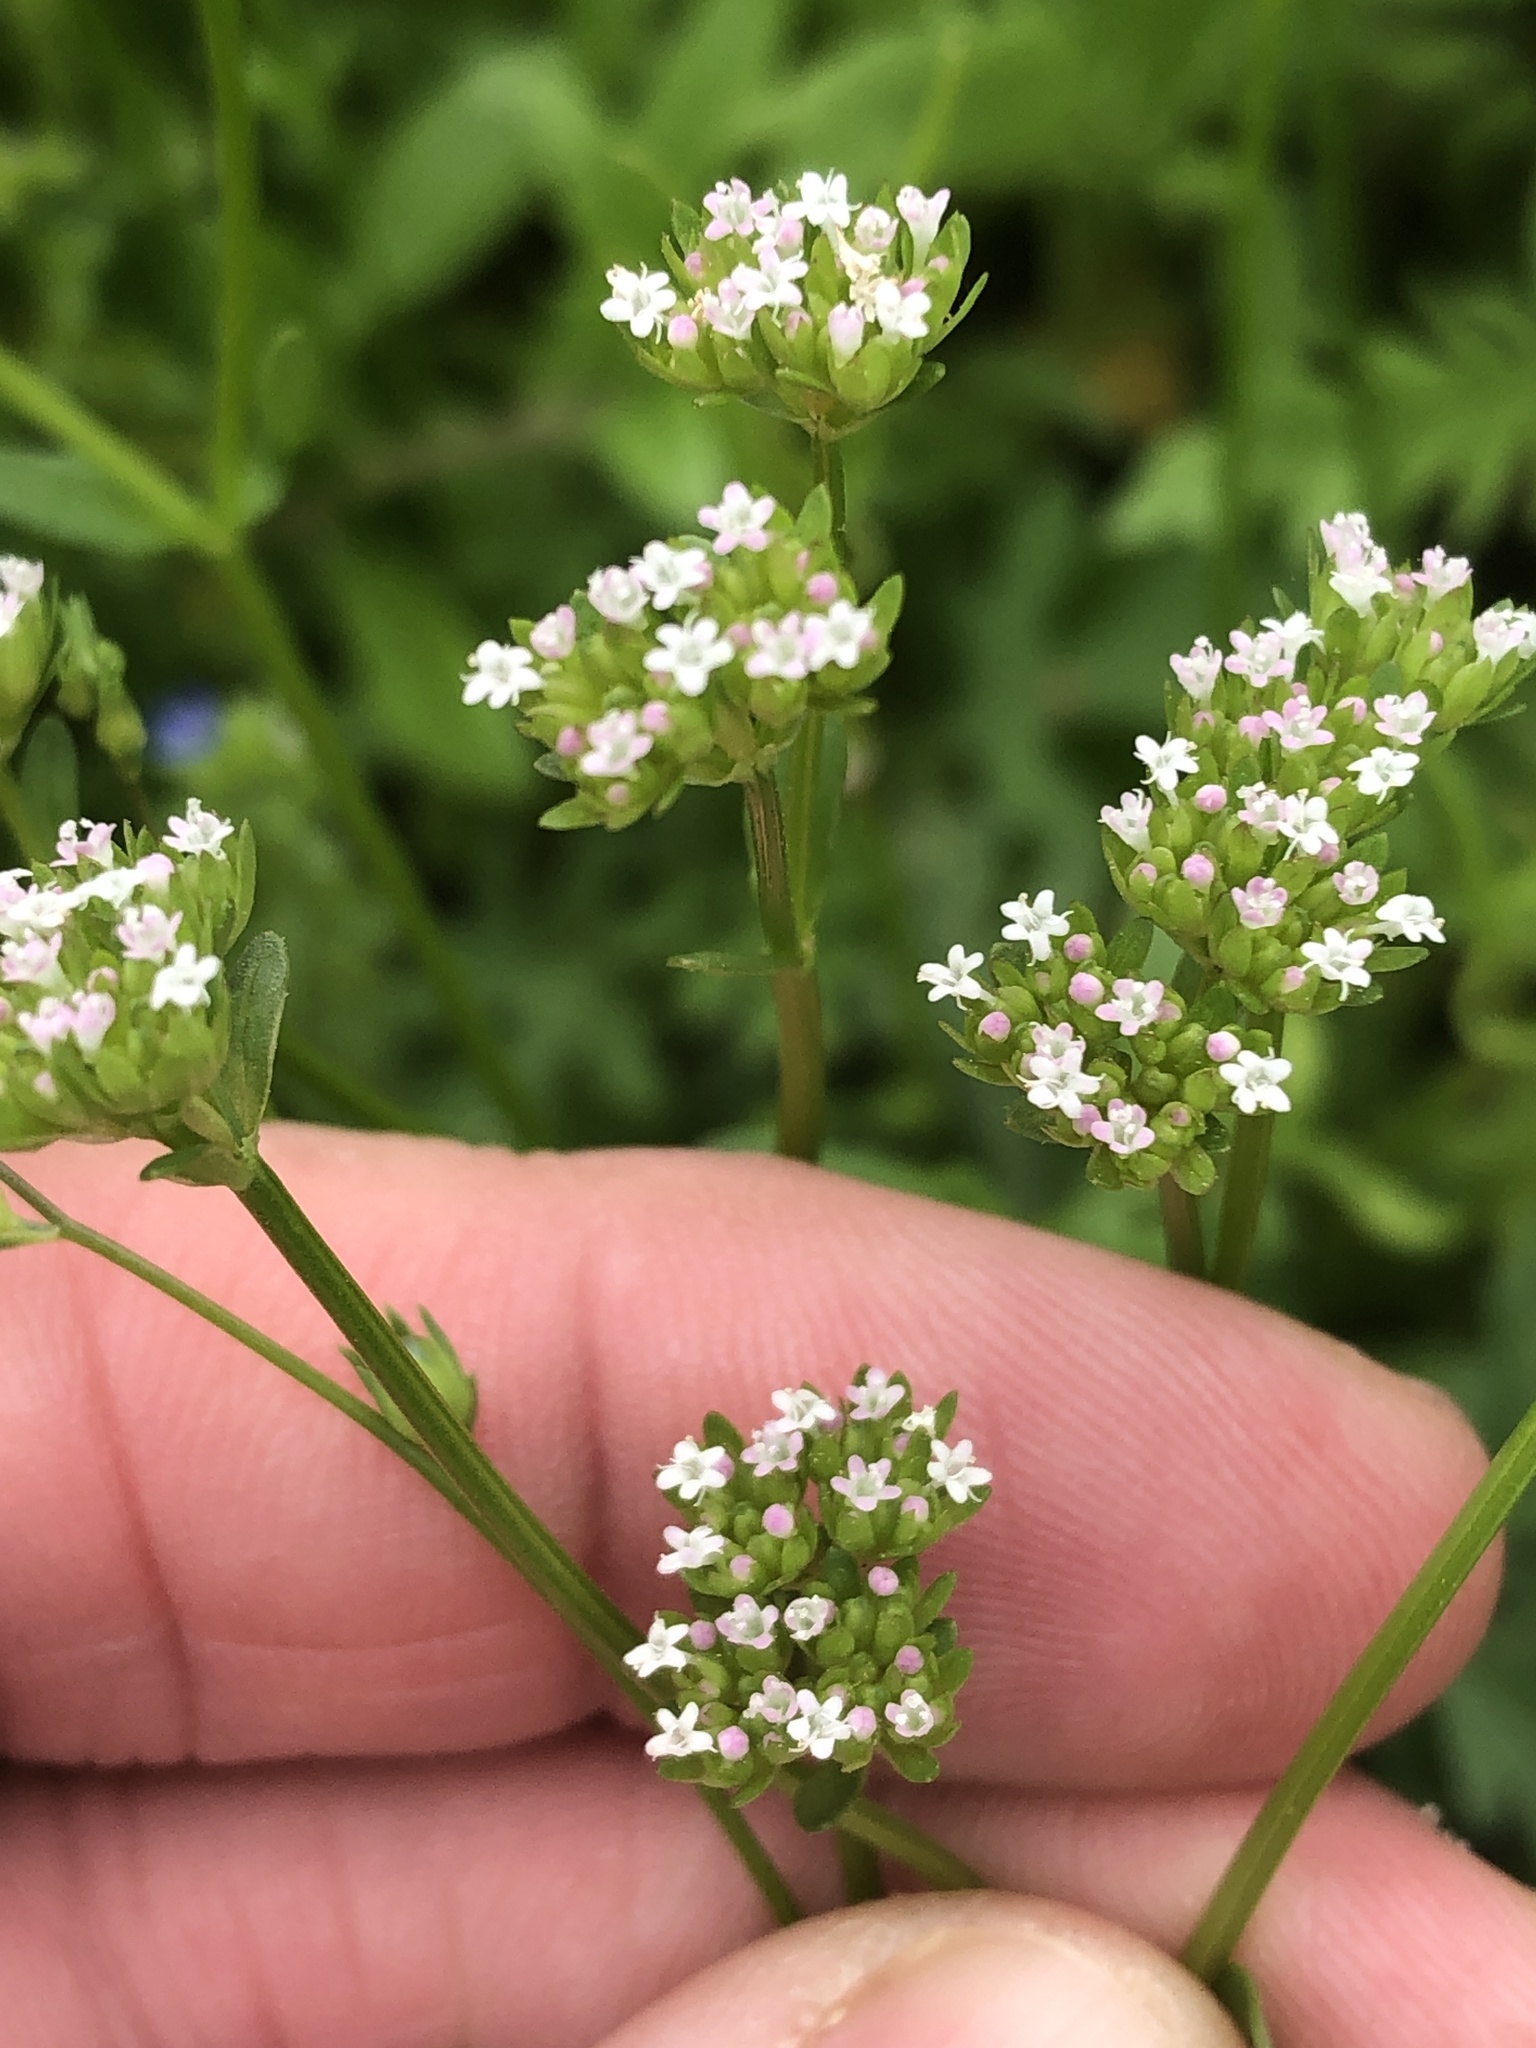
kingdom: Plantae
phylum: Tracheophyta
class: Magnoliopsida
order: Dipsacales
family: Caprifoliaceae
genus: Valerianella
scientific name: Valerianella radiata
